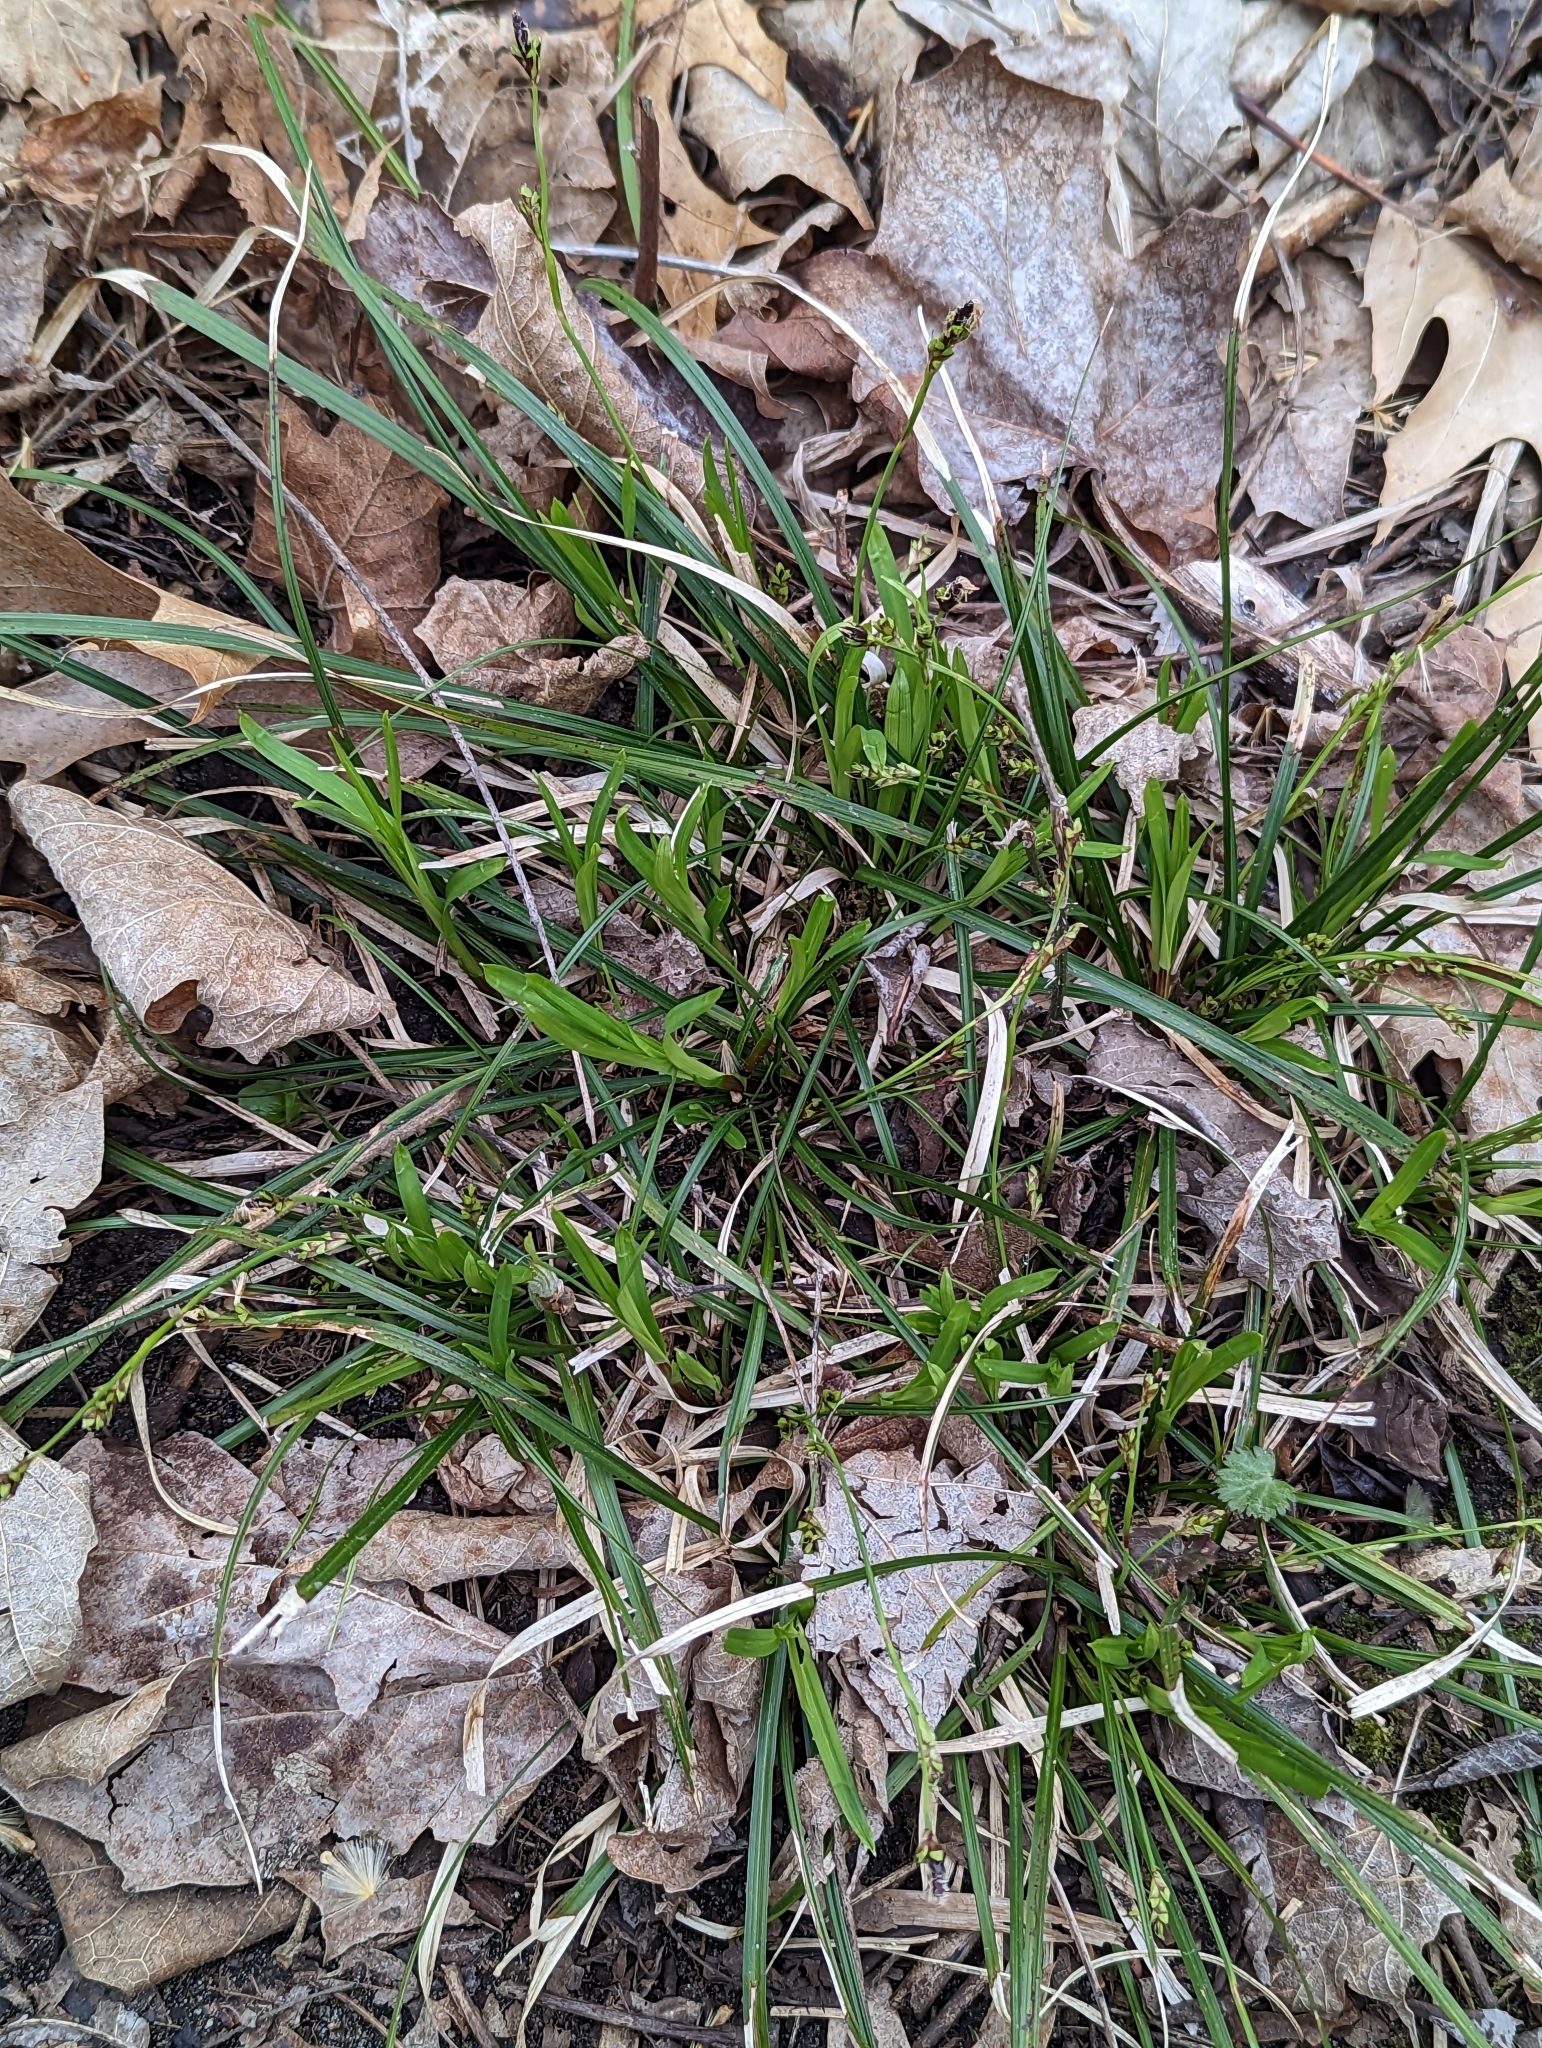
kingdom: Plantae
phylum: Tracheophyta
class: Liliopsida
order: Poales
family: Cyperaceae
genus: Carex
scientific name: Carex pedunculata
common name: Pedunculate sedge
